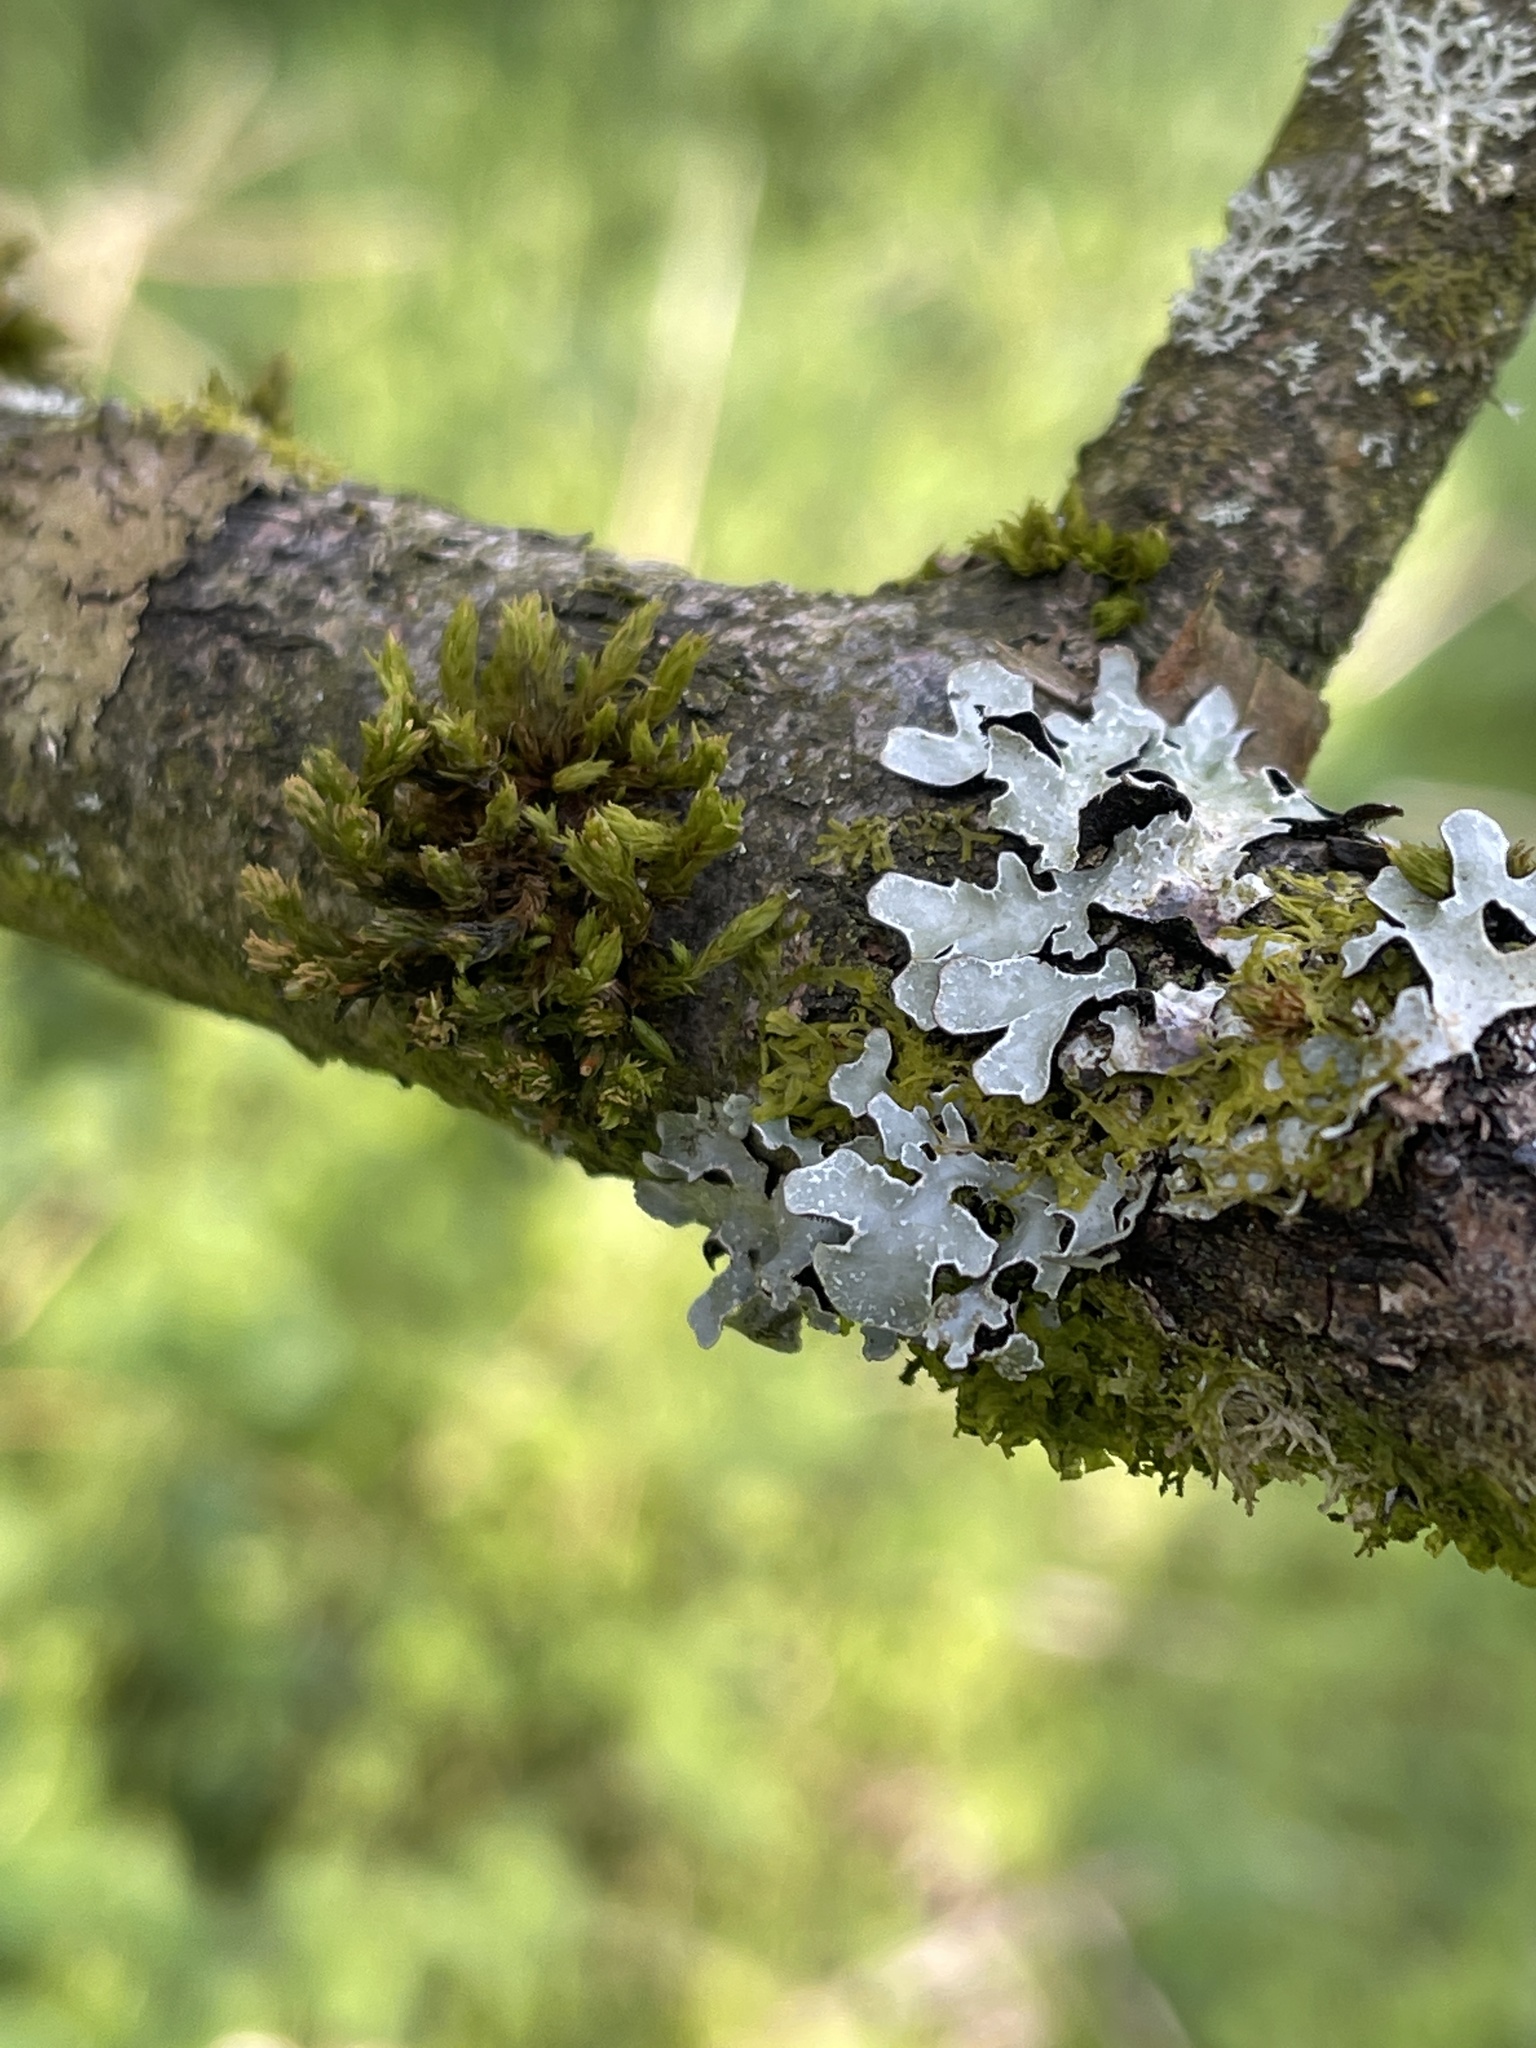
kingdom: Fungi
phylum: Ascomycota
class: Lecanoromycetes
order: Lecanorales
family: Parmeliaceae
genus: Parmelia
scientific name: Parmelia sulcata
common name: Netted shield lichen
